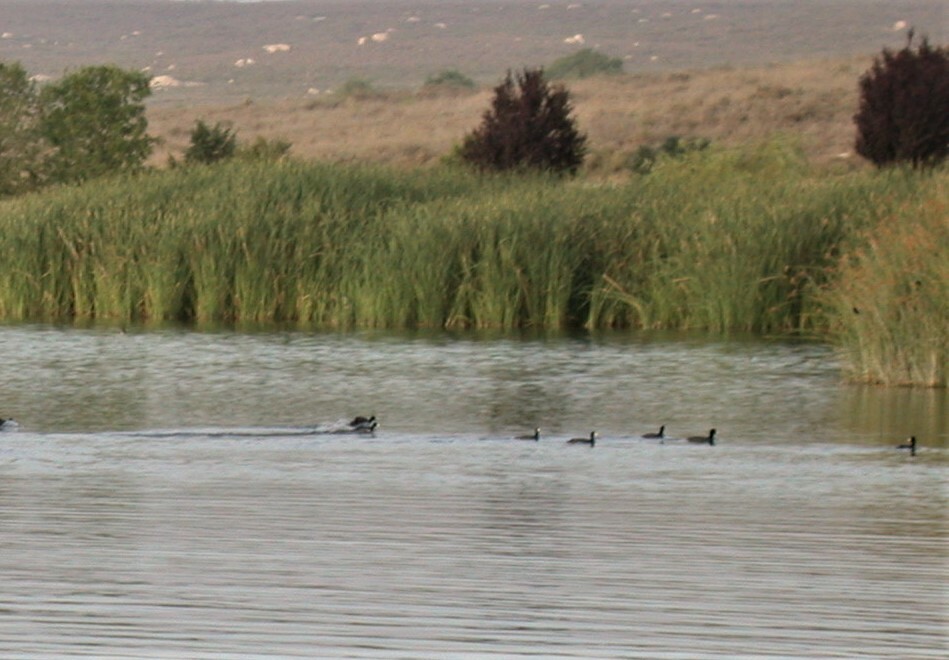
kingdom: Animalia
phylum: Chordata
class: Aves
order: Gruiformes
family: Rallidae
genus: Fulica
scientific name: Fulica americana
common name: American coot
